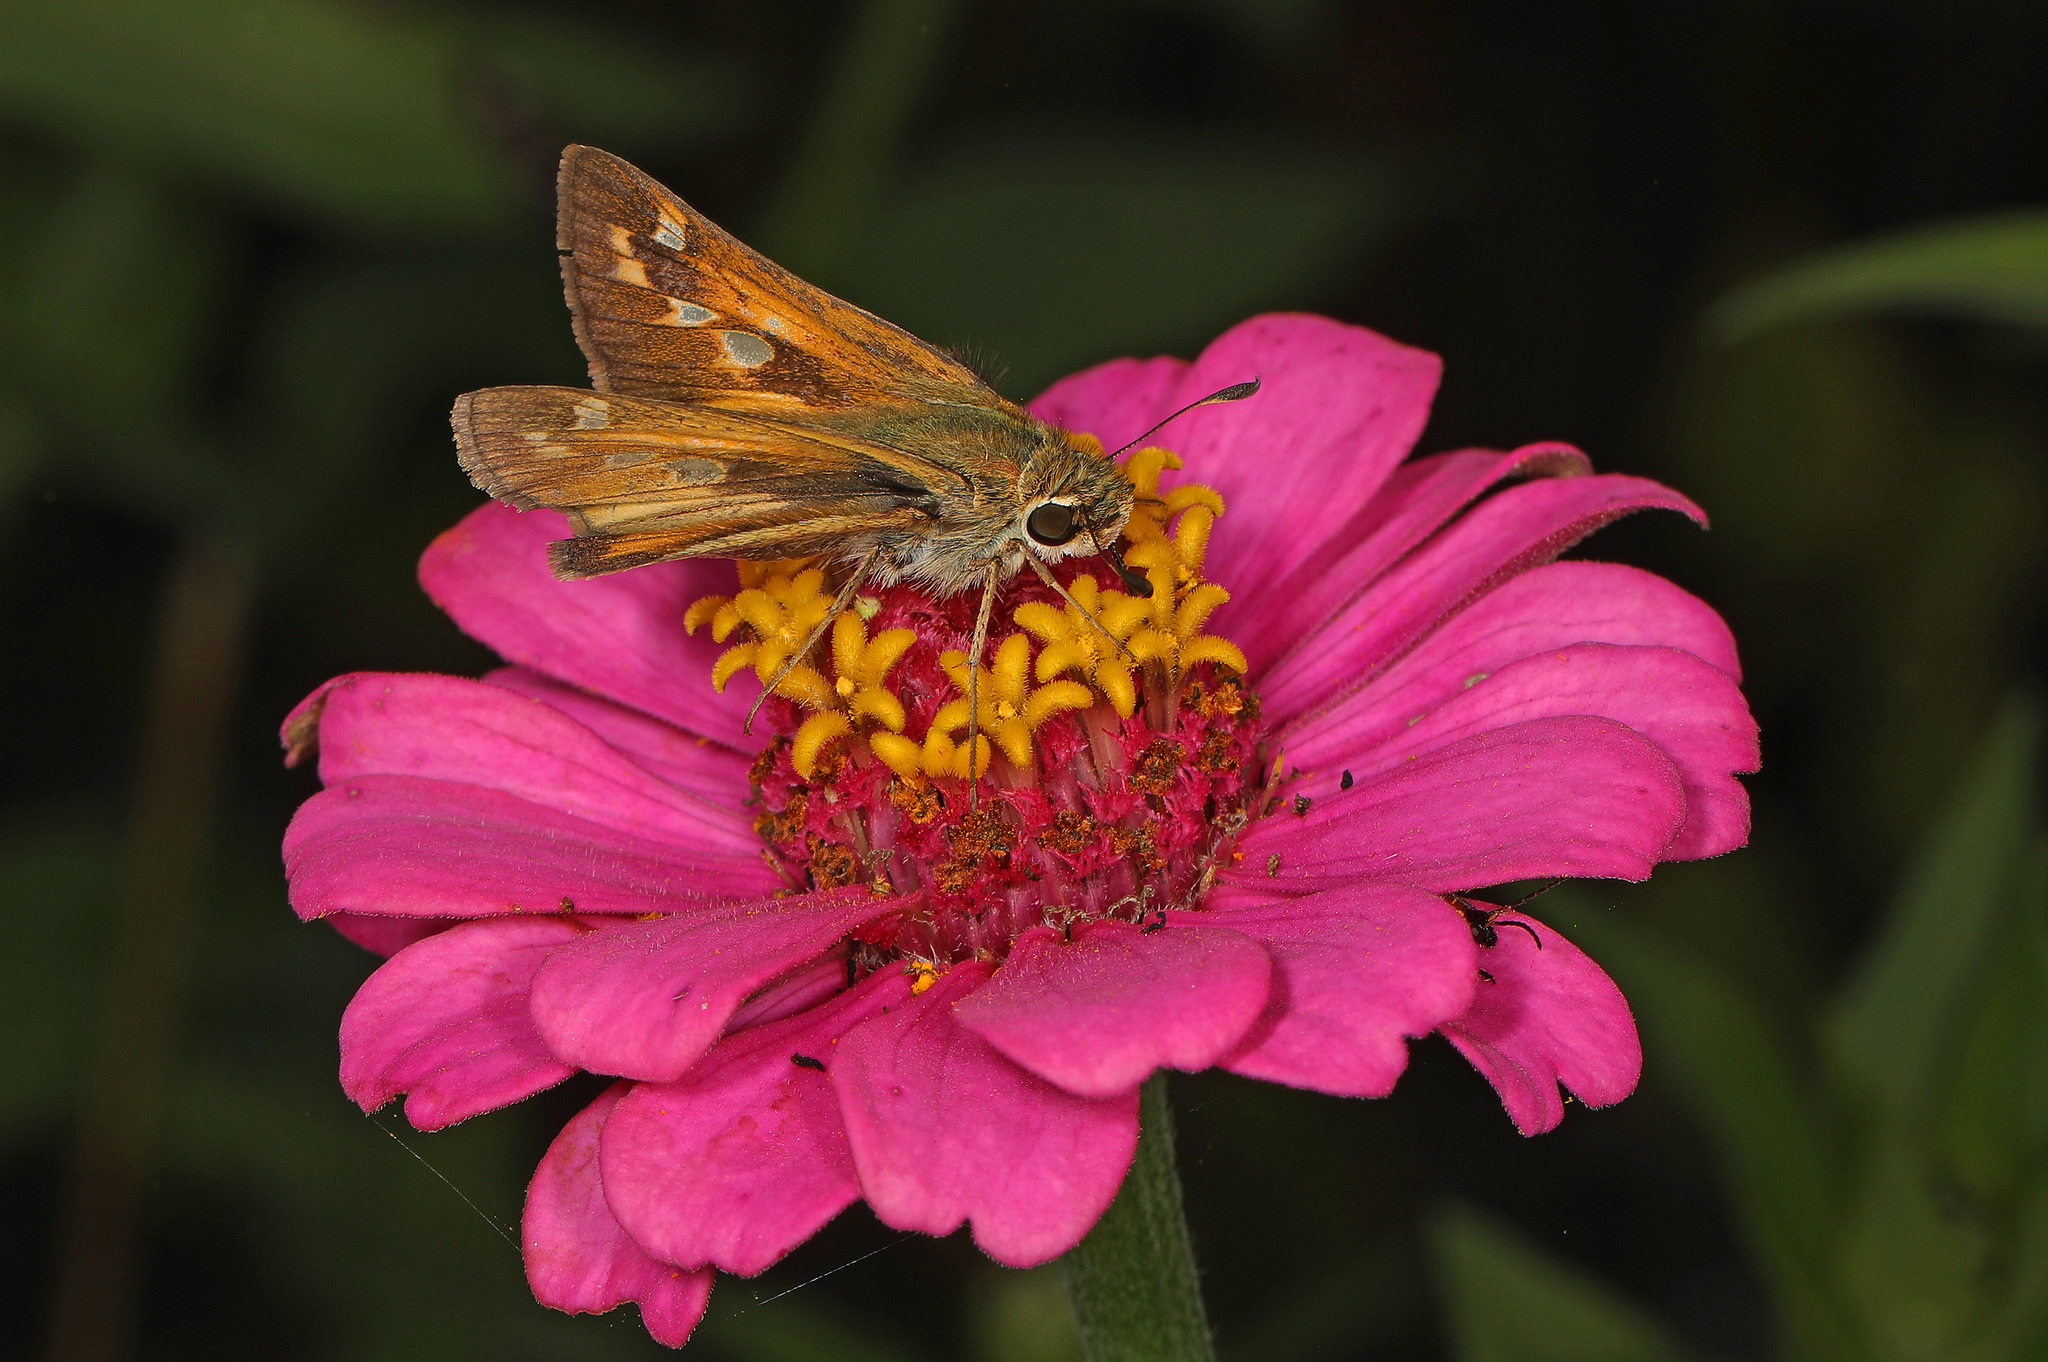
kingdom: Animalia
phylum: Arthropoda
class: Insecta
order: Lepidoptera
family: Hesperiidae
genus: Atalopedes
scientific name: Atalopedes
